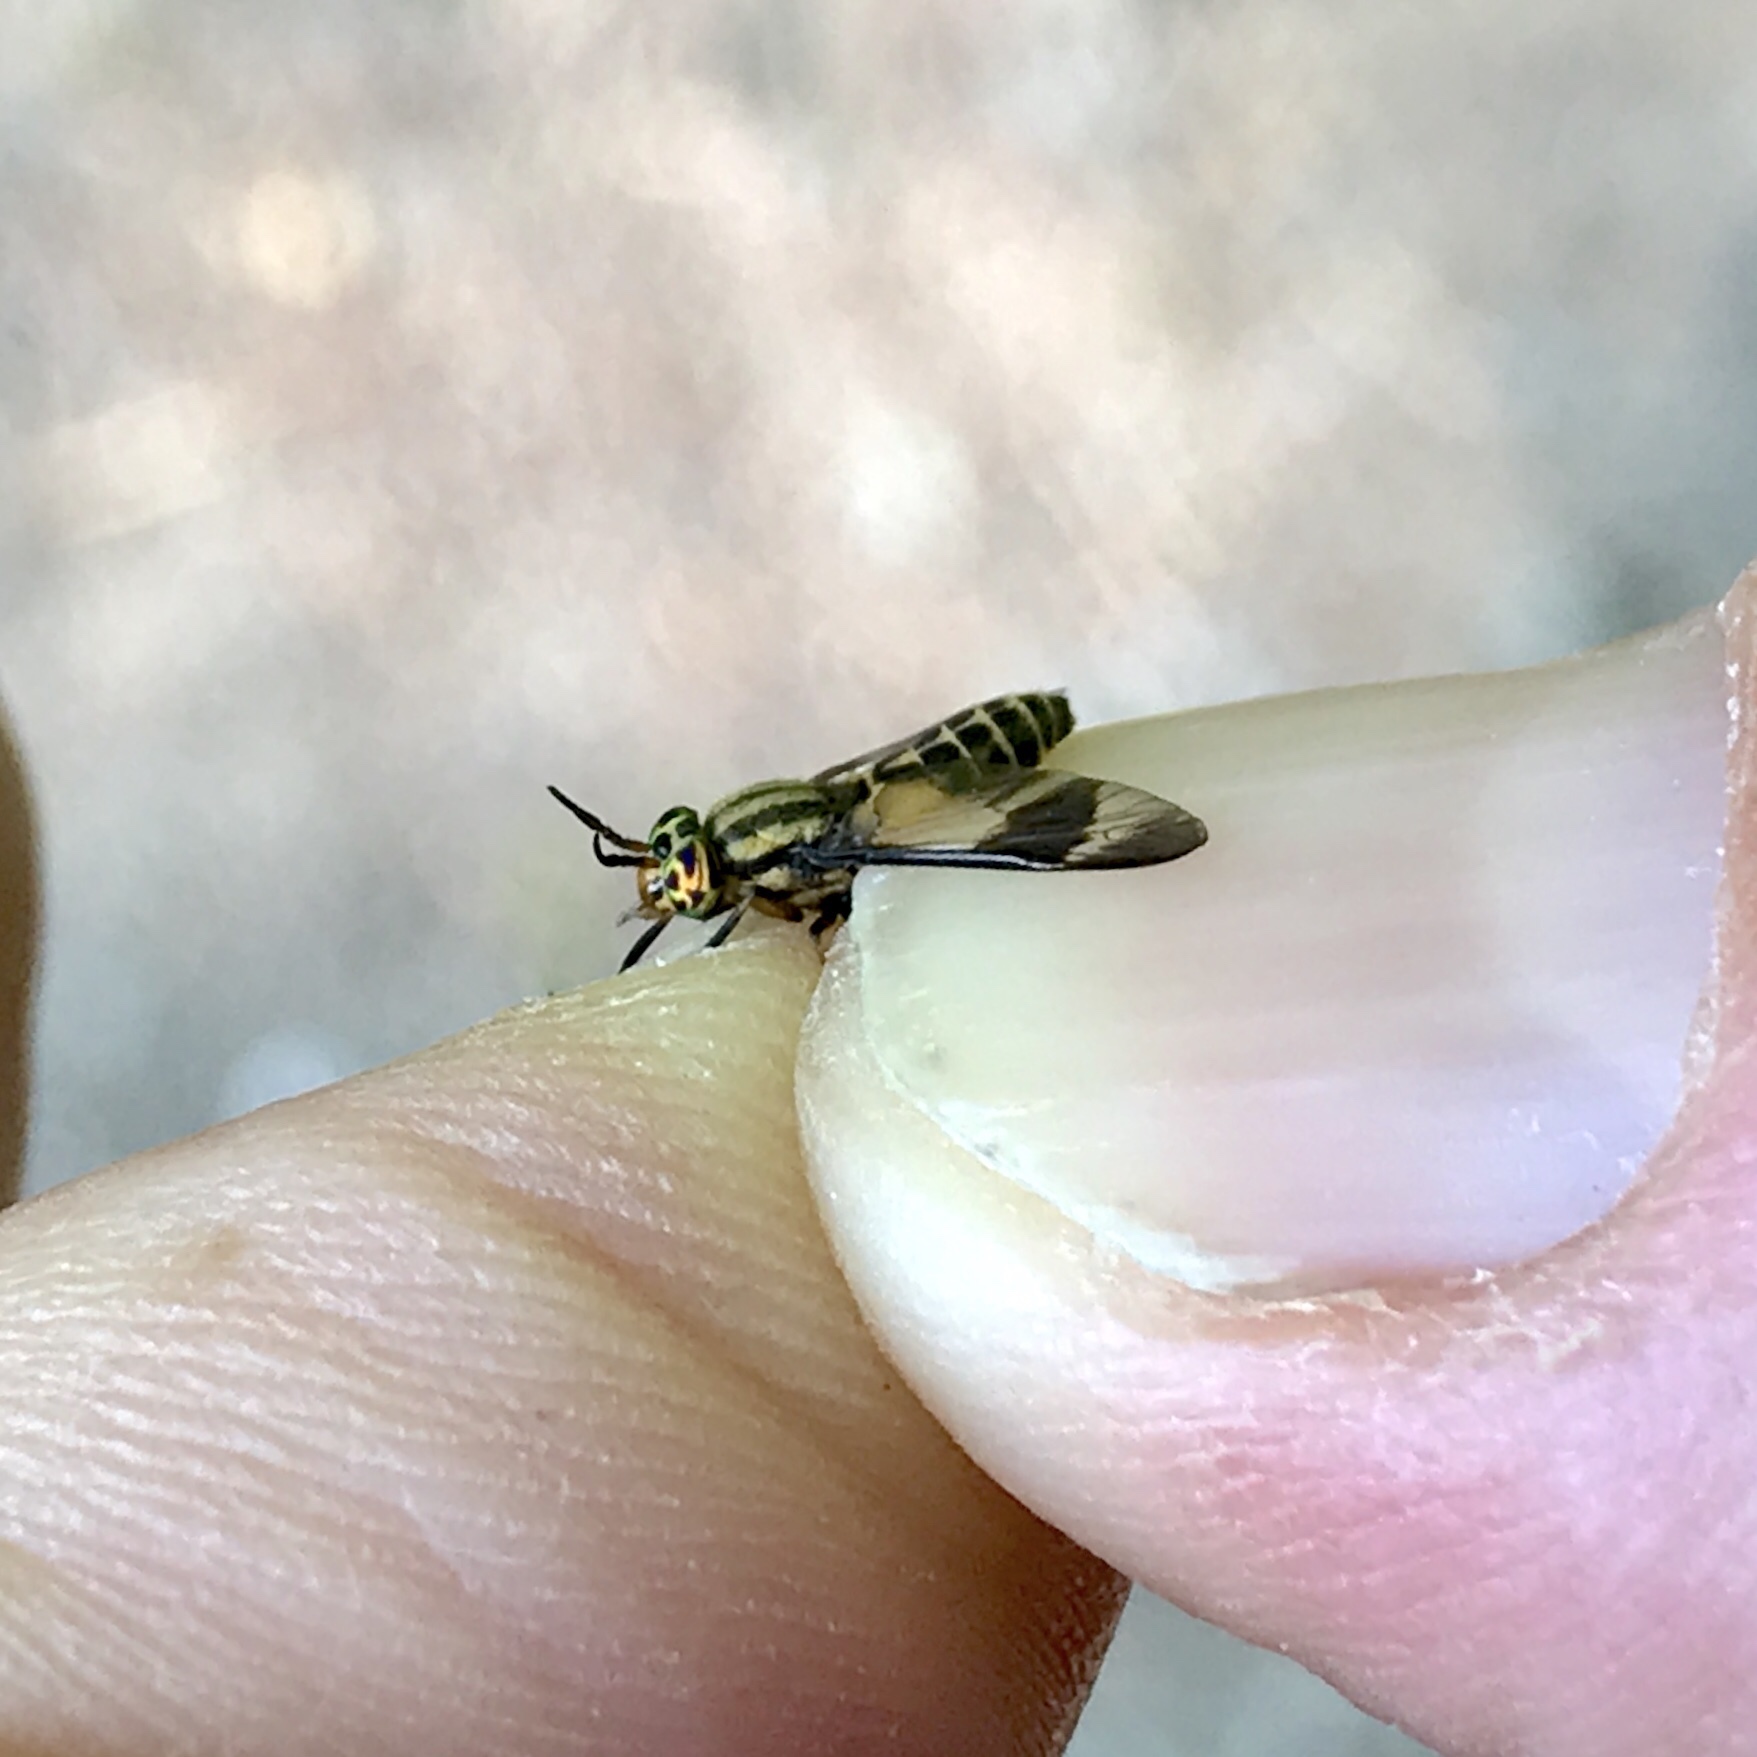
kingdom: Animalia
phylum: Arthropoda
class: Insecta
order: Diptera
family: Tabanidae
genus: Chrysops
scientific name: Chrysops geminatus
